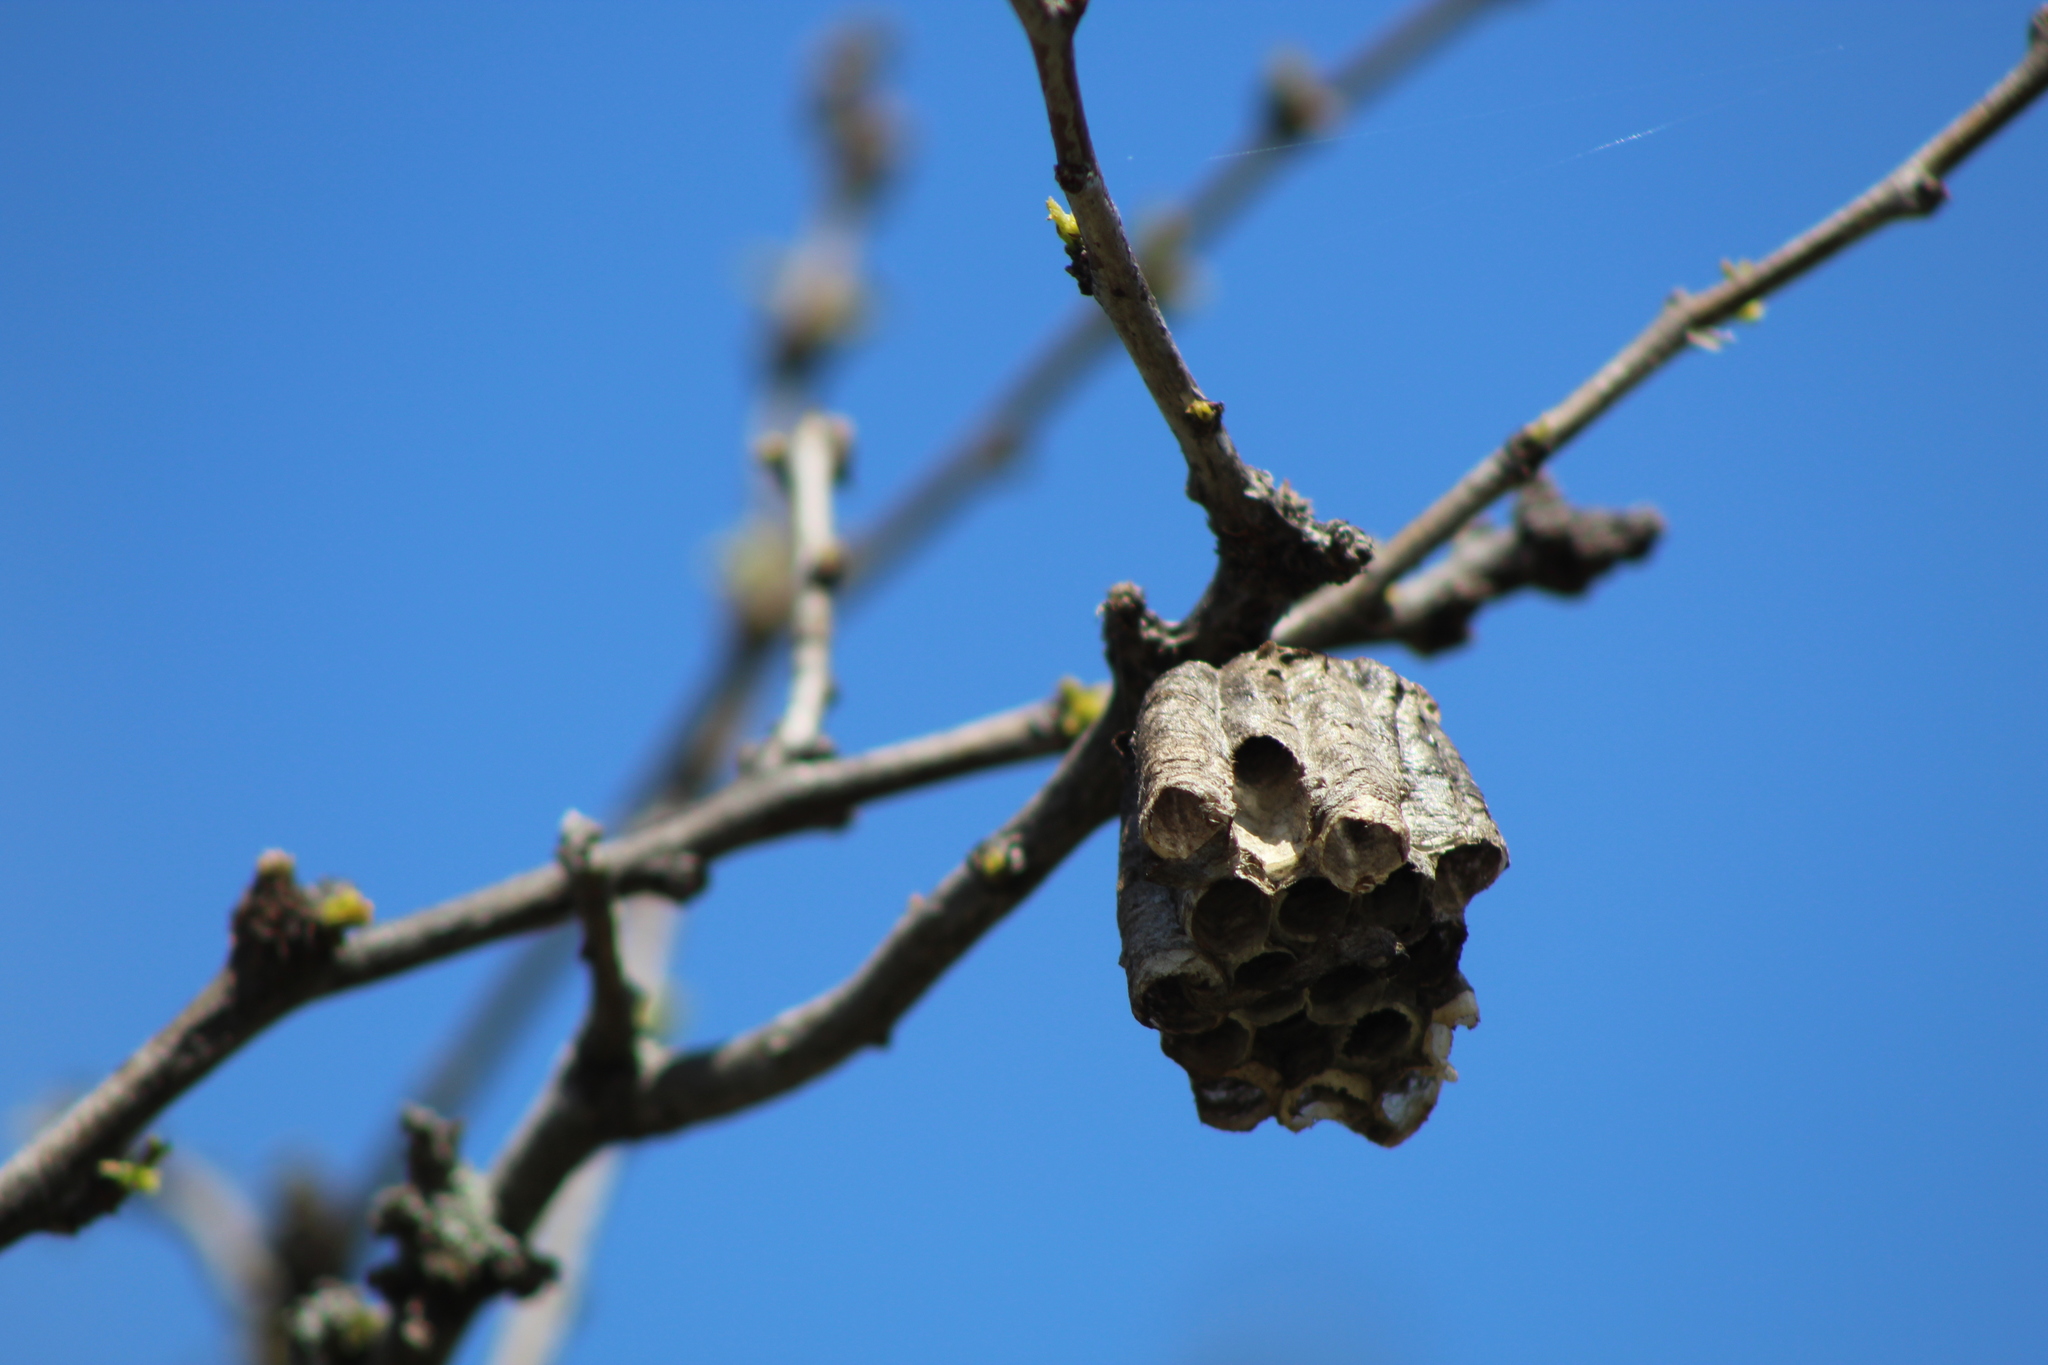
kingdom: Animalia
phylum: Arthropoda
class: Insecta
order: Hymenoptera
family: Vespidae
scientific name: Vespidae
